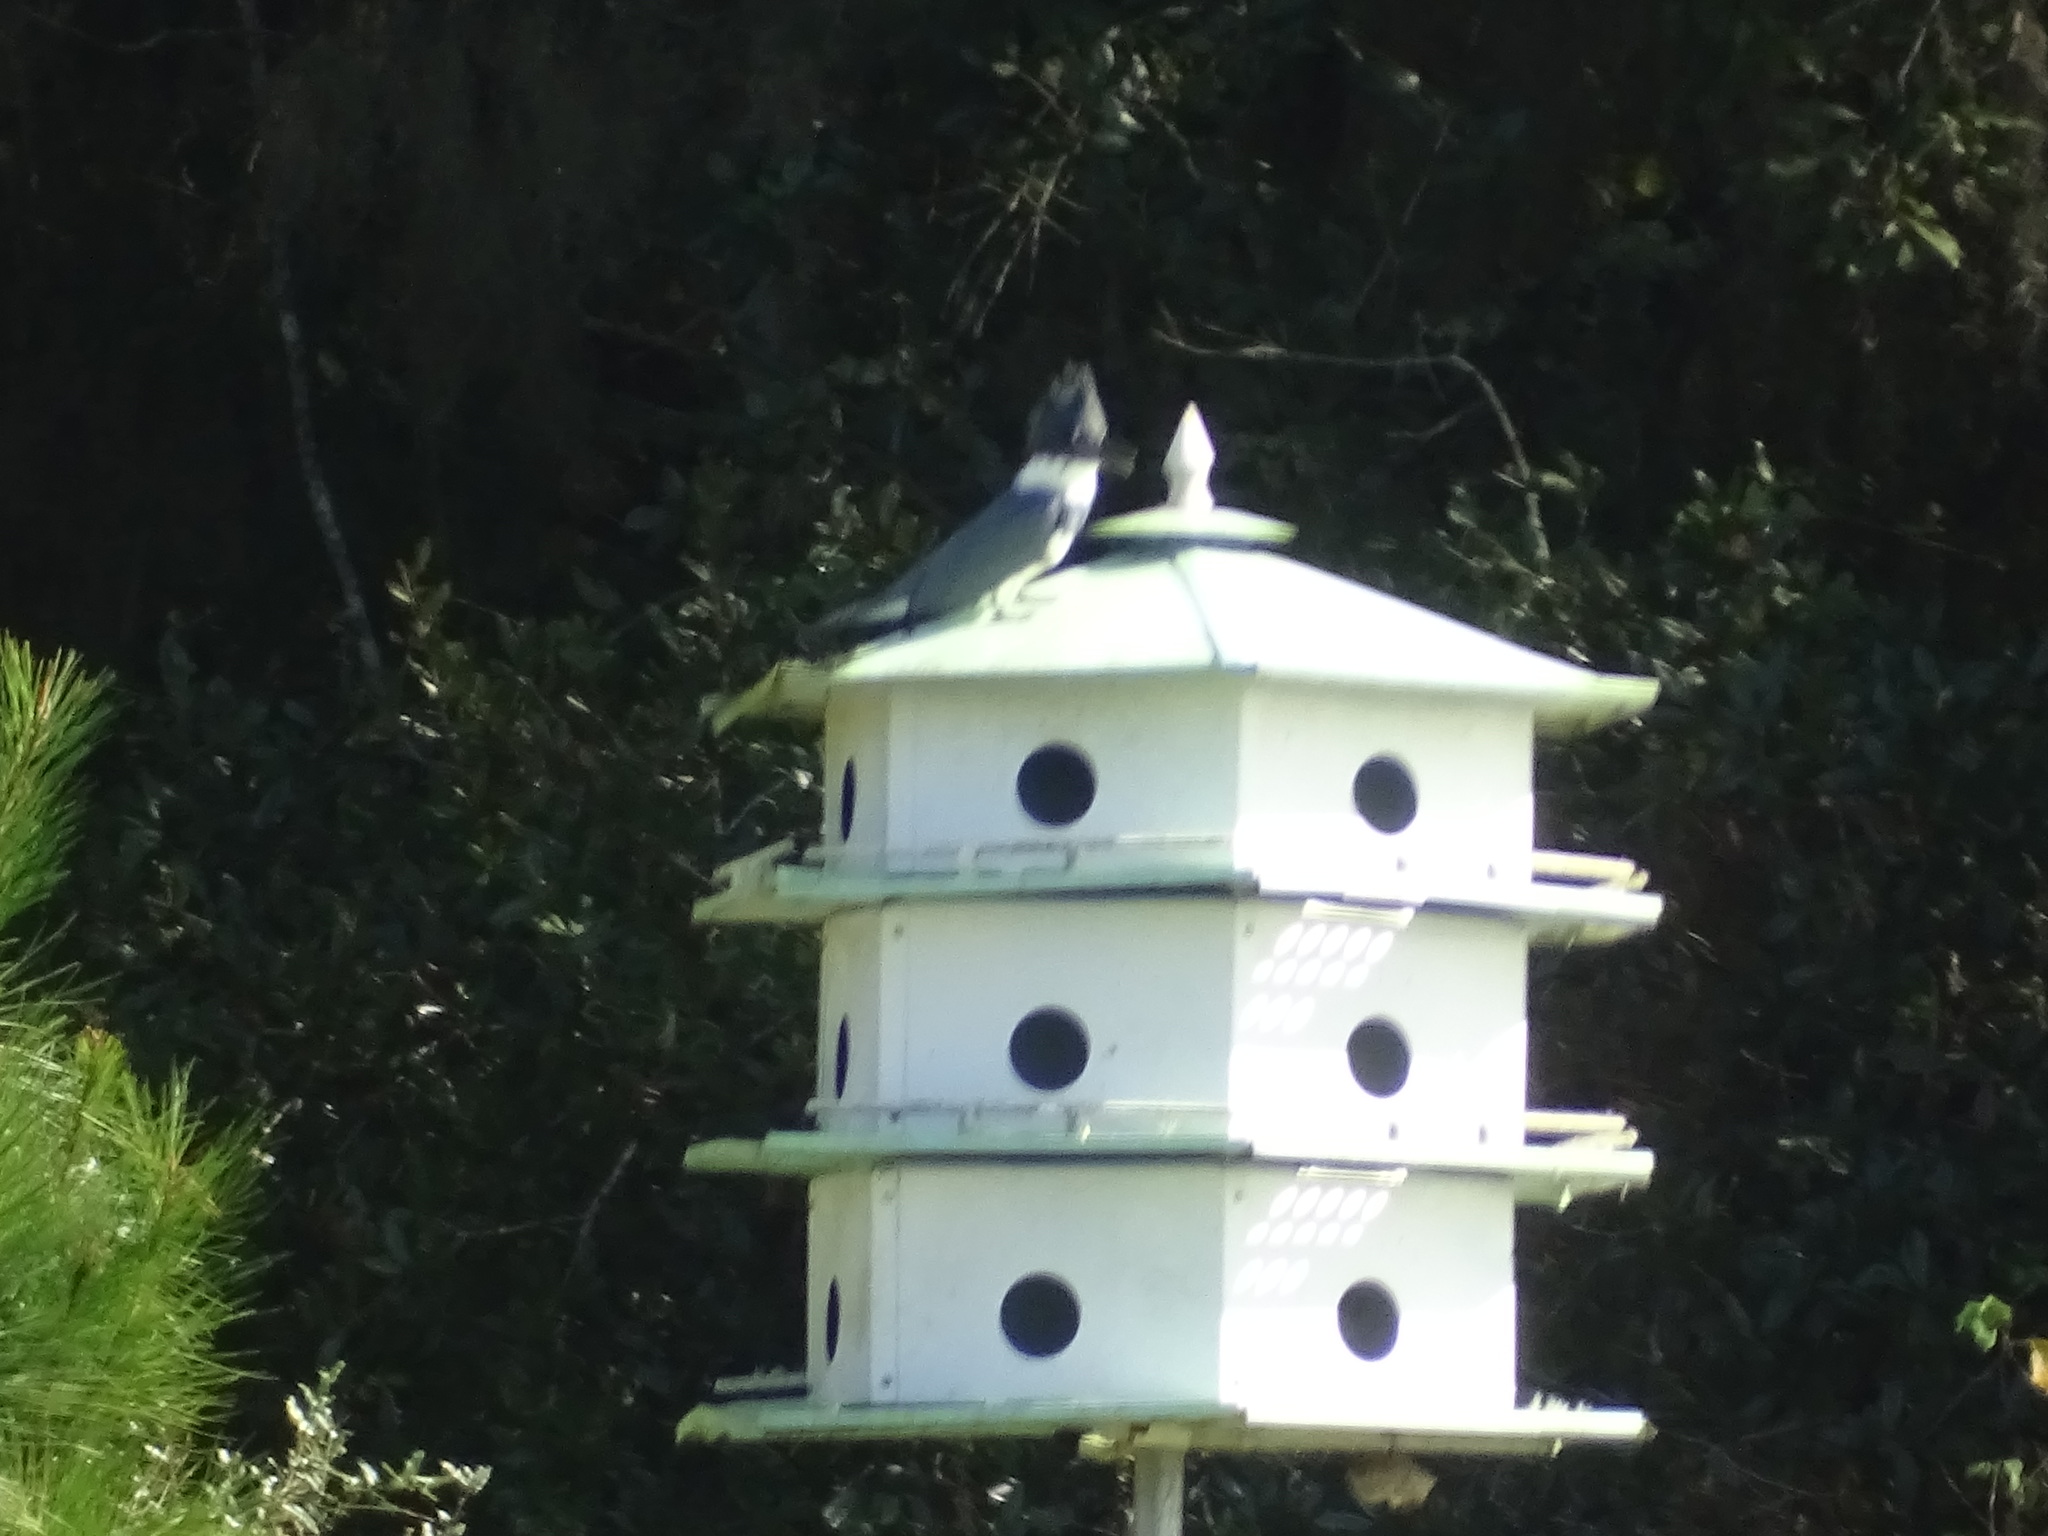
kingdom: Animalia
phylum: Chordata
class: Aves
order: Coraciiformes
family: Alcedinidae
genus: Megaceryle
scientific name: Megaceryle alcyon
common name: Belted kingfisher
